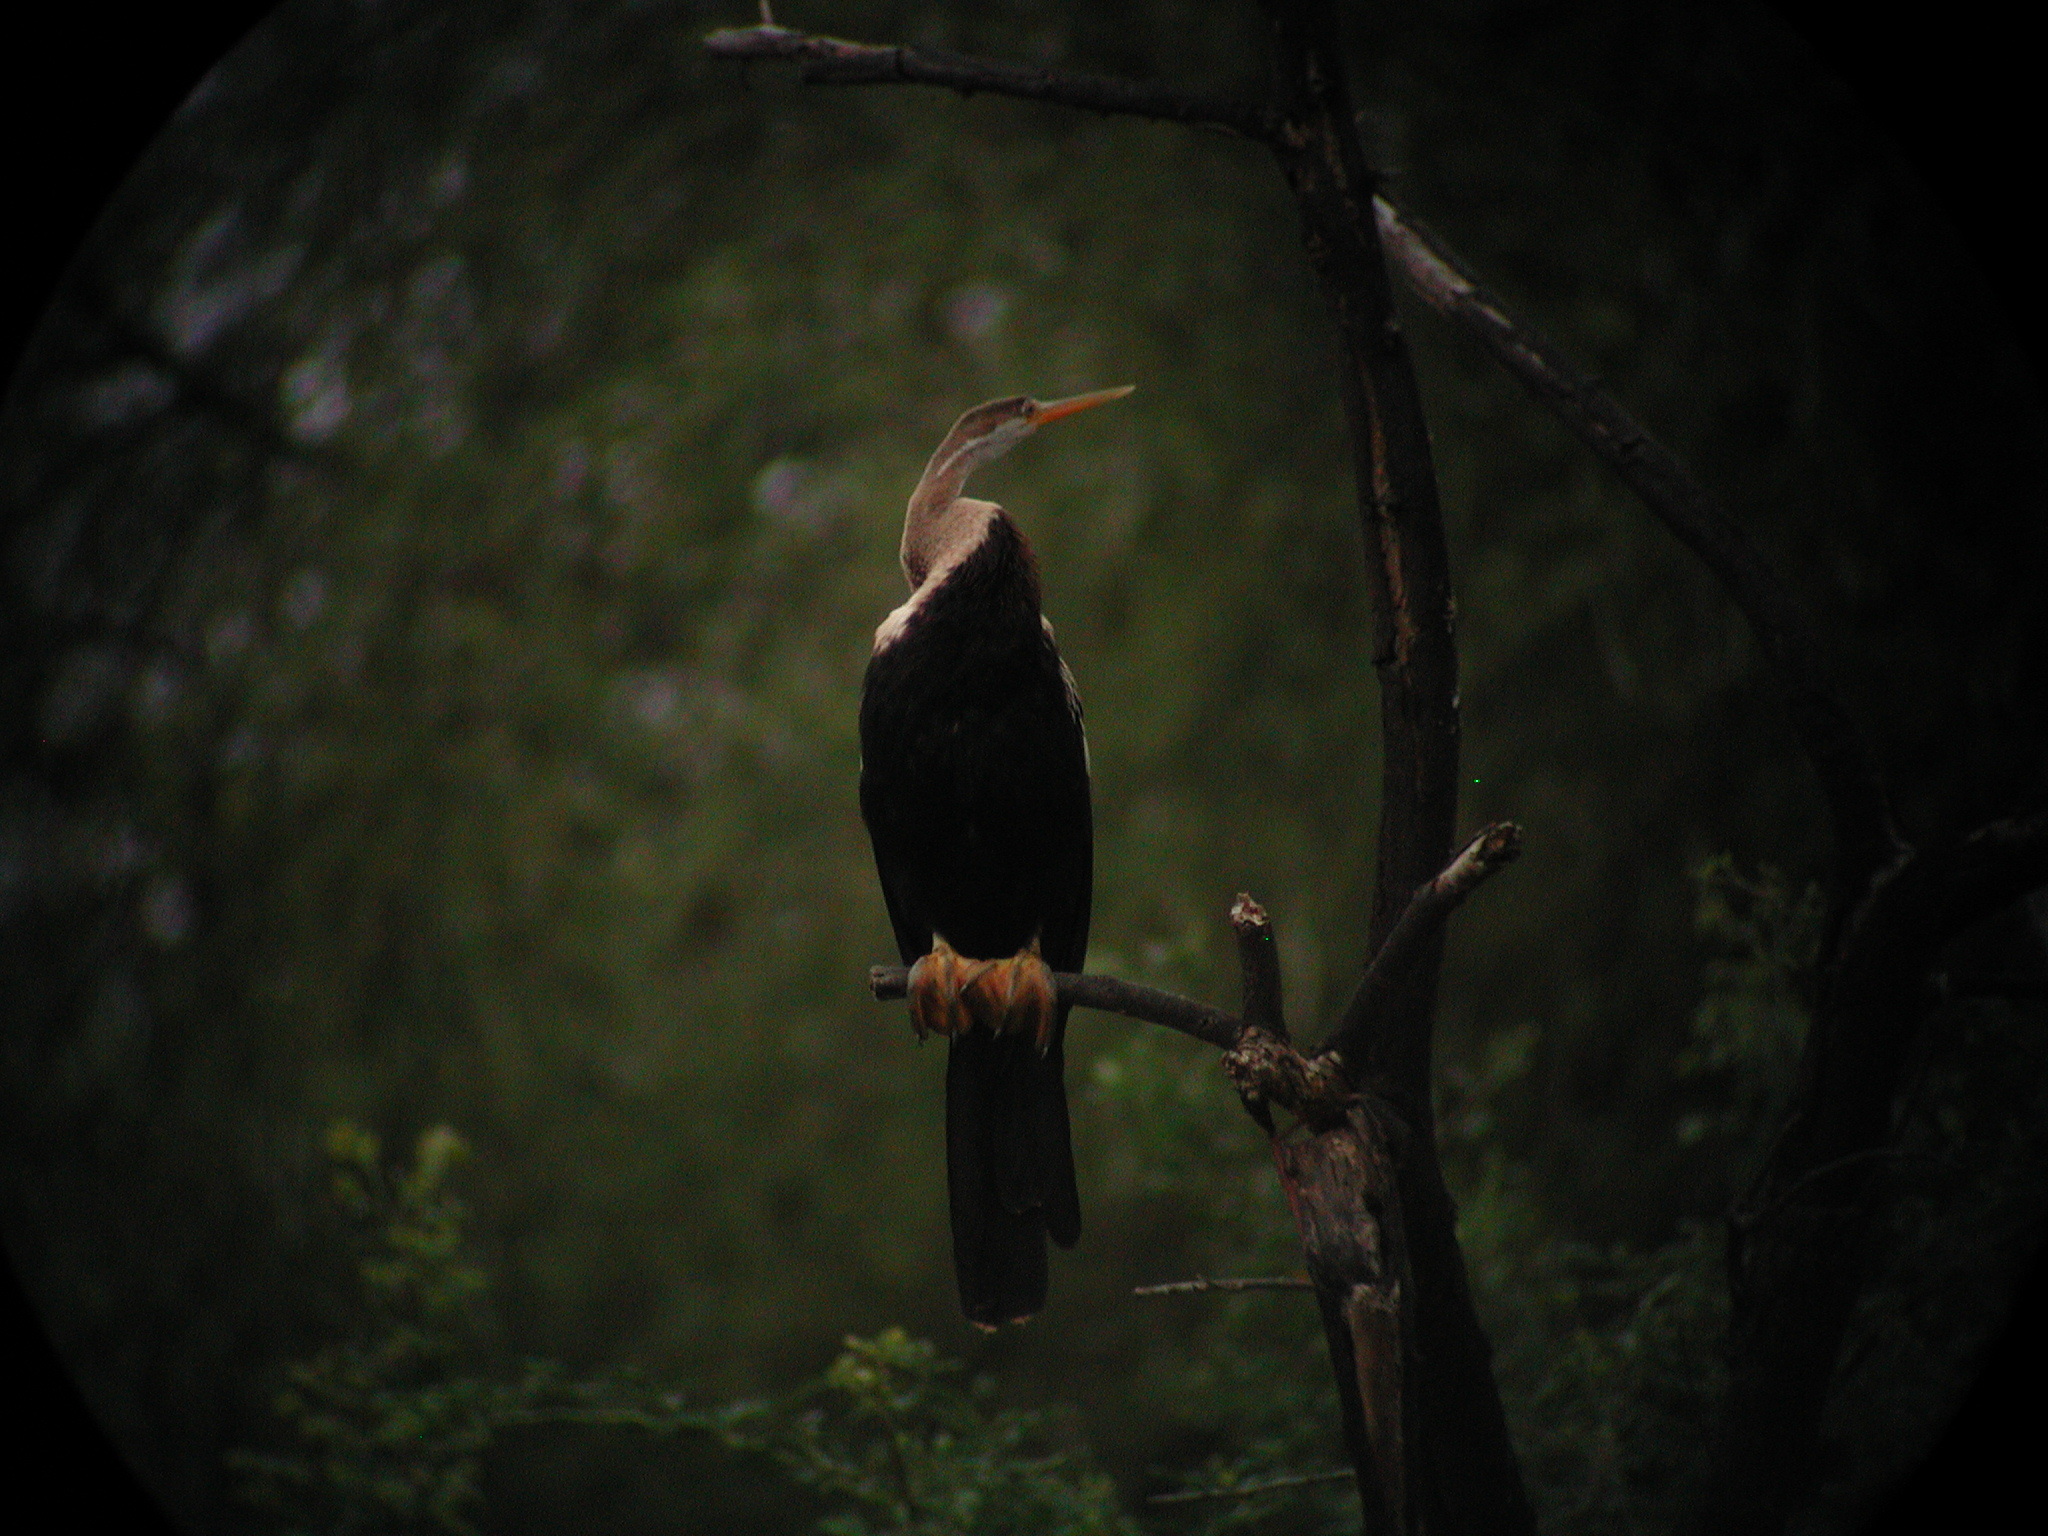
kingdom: Animalia
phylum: Chordata
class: Aves
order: Suliformes
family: Anhingidae
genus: Anhinga
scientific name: Anhinga melanogaster
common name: Oriental darter
